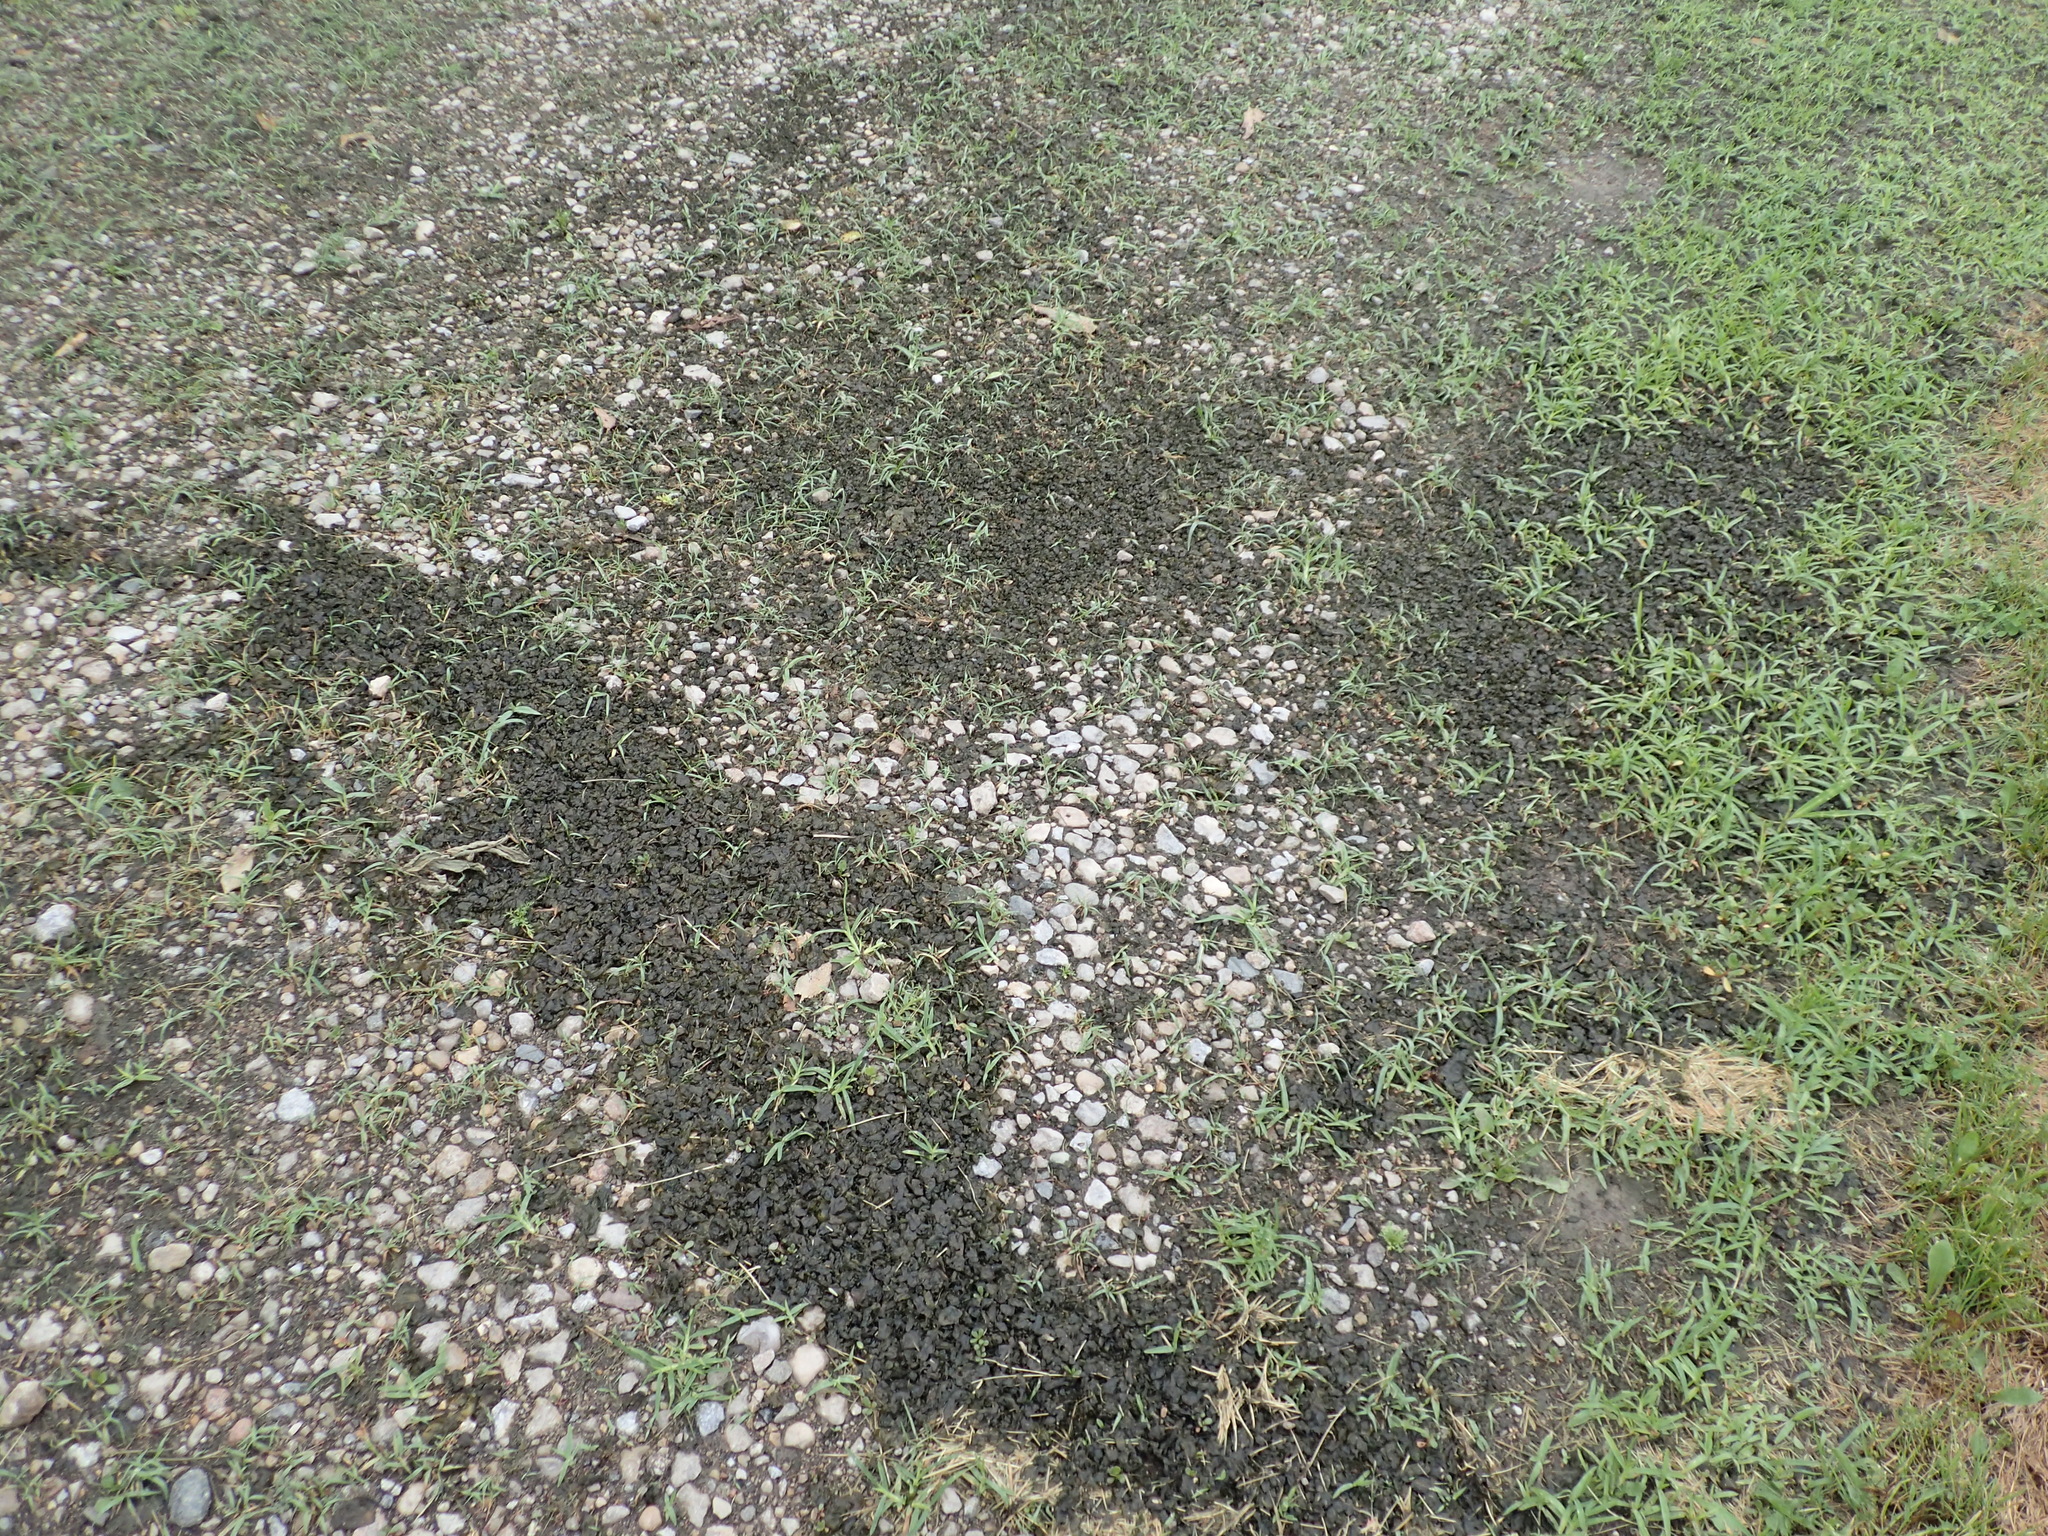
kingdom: Bacteria
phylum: Cyanobacteria
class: Cyanobacteriia
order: Cyanobacteriales
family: Nostocaceae
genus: Nostoc
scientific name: Nostoc commune
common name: Star jelly
